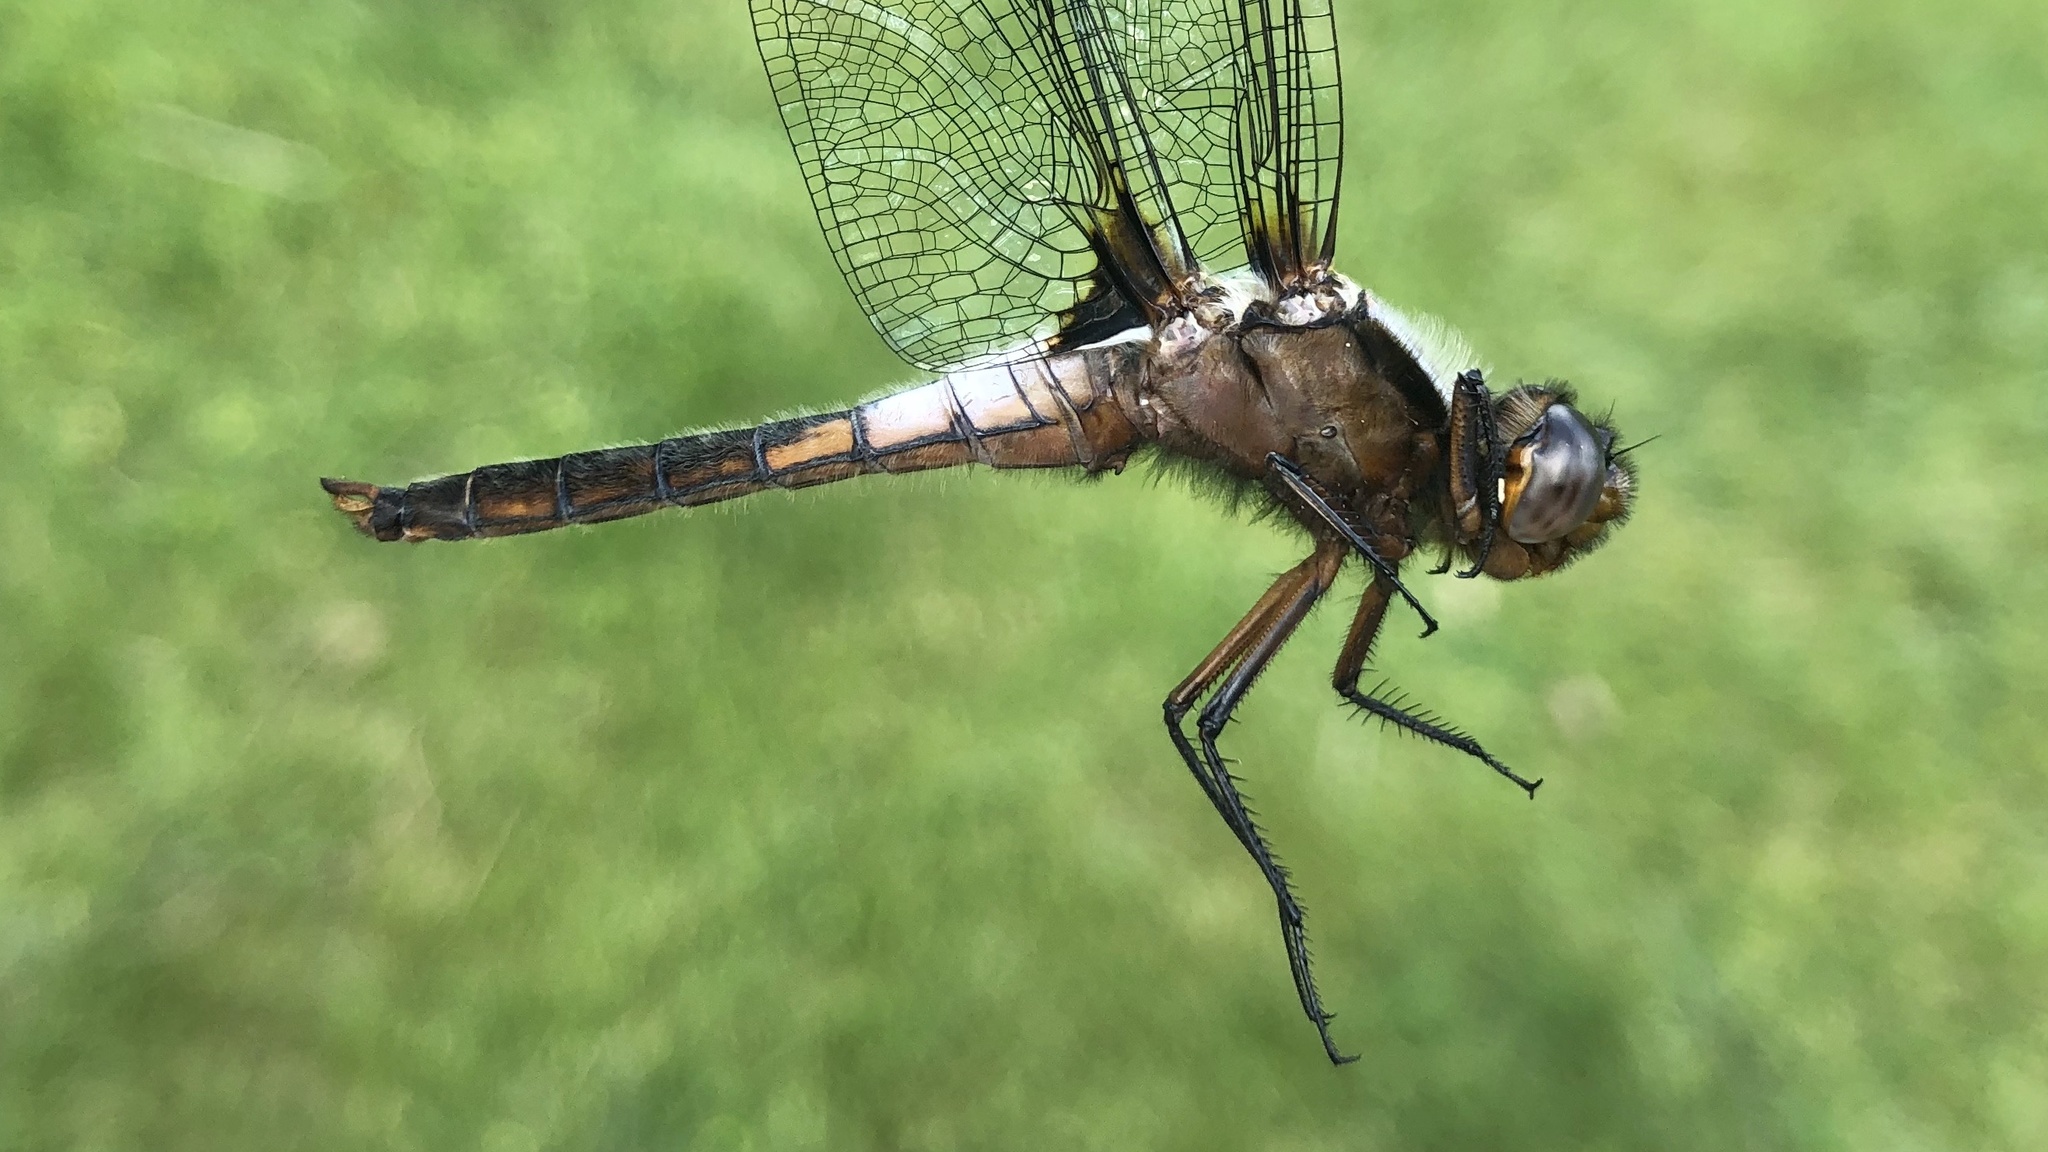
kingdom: Animalia
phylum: Arthropoda
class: Insecta
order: Odonata
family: Libellulidae
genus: Ladona
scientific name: Ladona julia
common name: Chalk-fronted corporal
